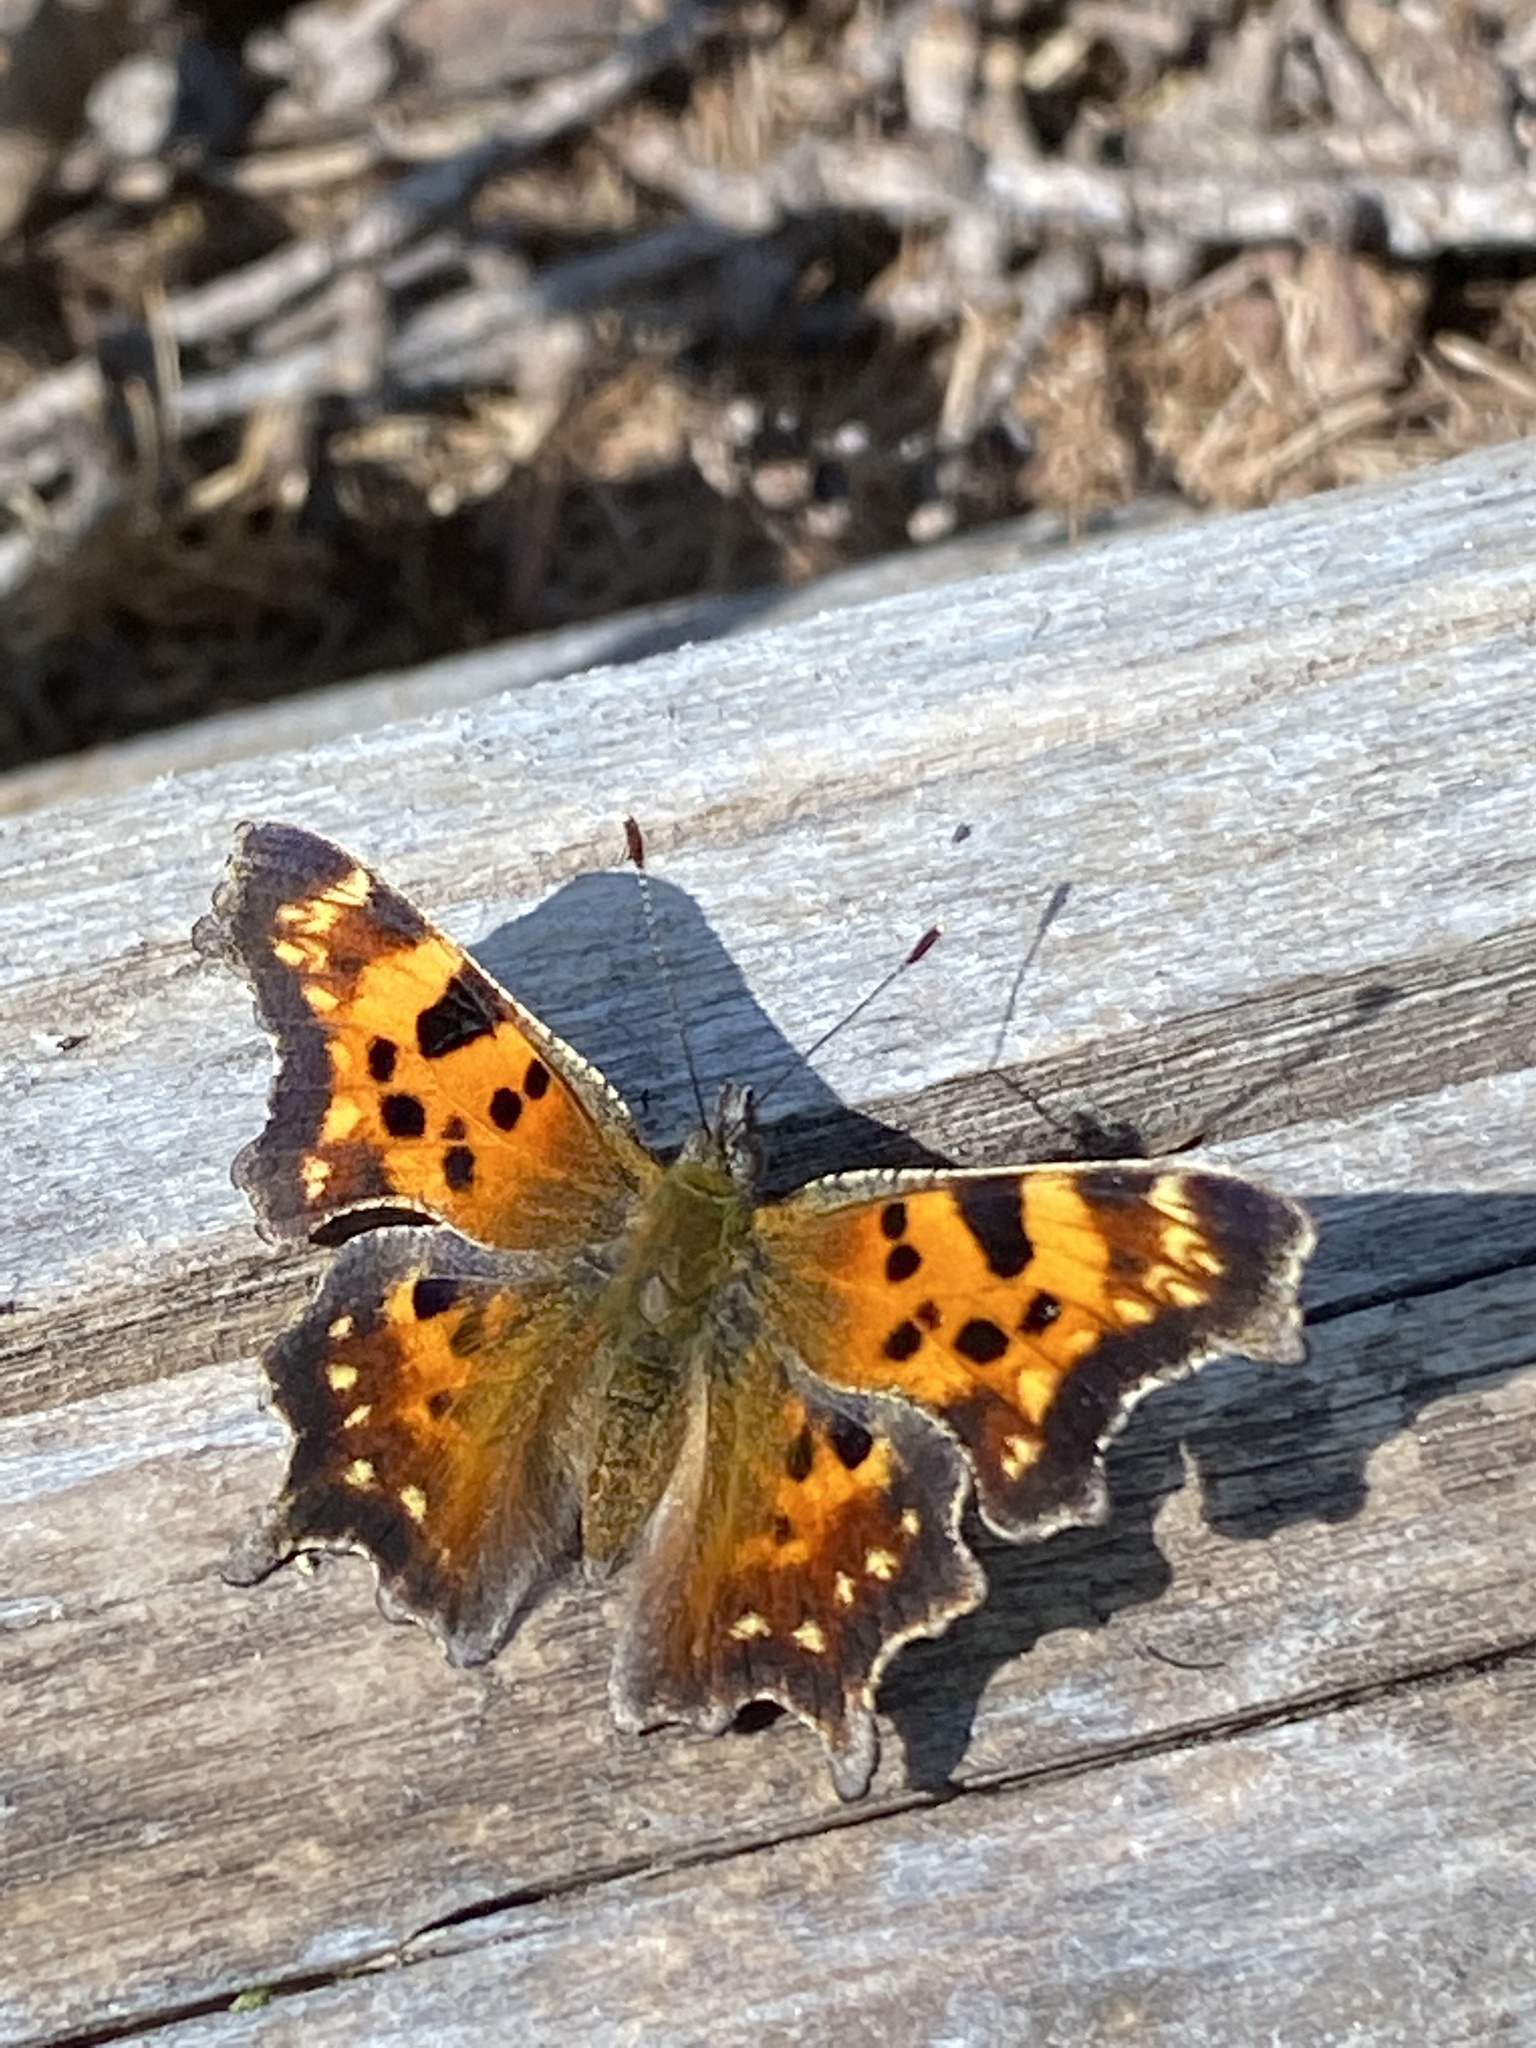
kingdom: Animalia
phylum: Arthropoda
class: Insecta
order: Lepidoptera
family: Nymphalidae
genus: Polygonia
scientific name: Polygonia faunus
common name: Green comma
